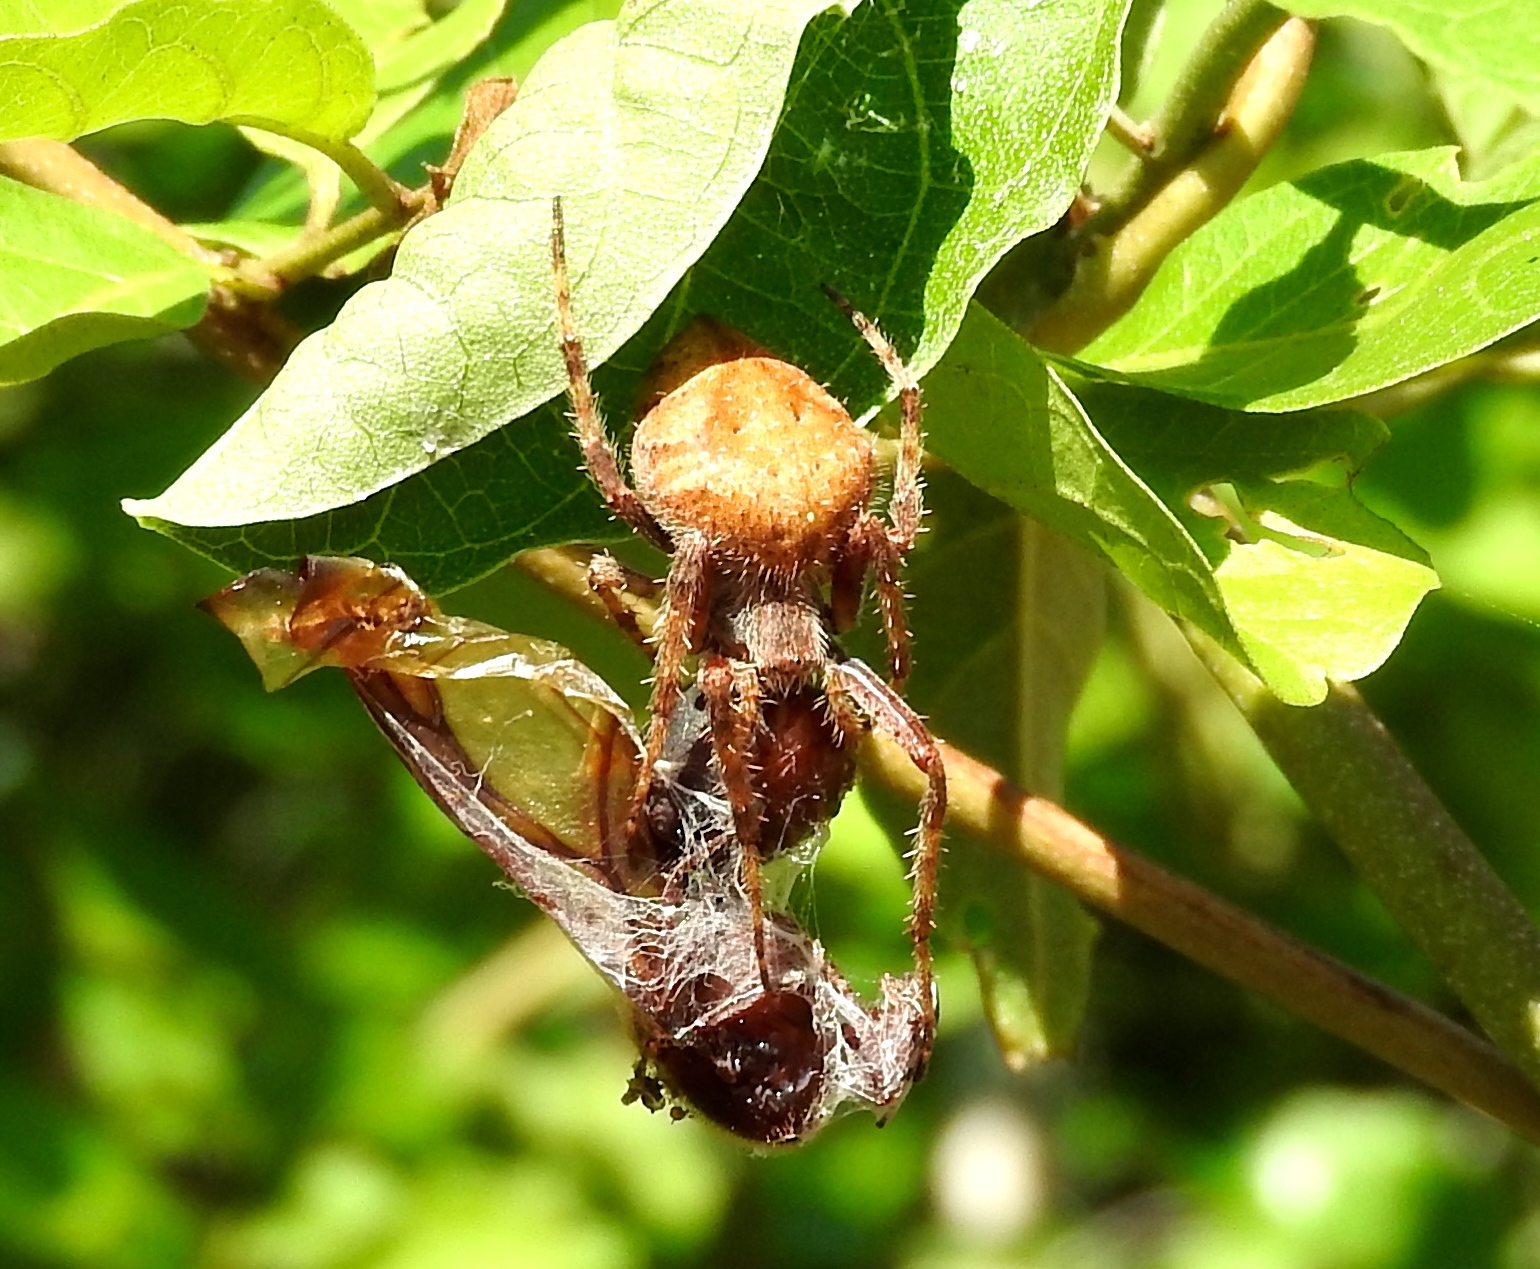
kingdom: Animalia
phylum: Arthropoda
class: Arachnida
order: Araneae
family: Araneidae
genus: Eriophora
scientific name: Eriophora
